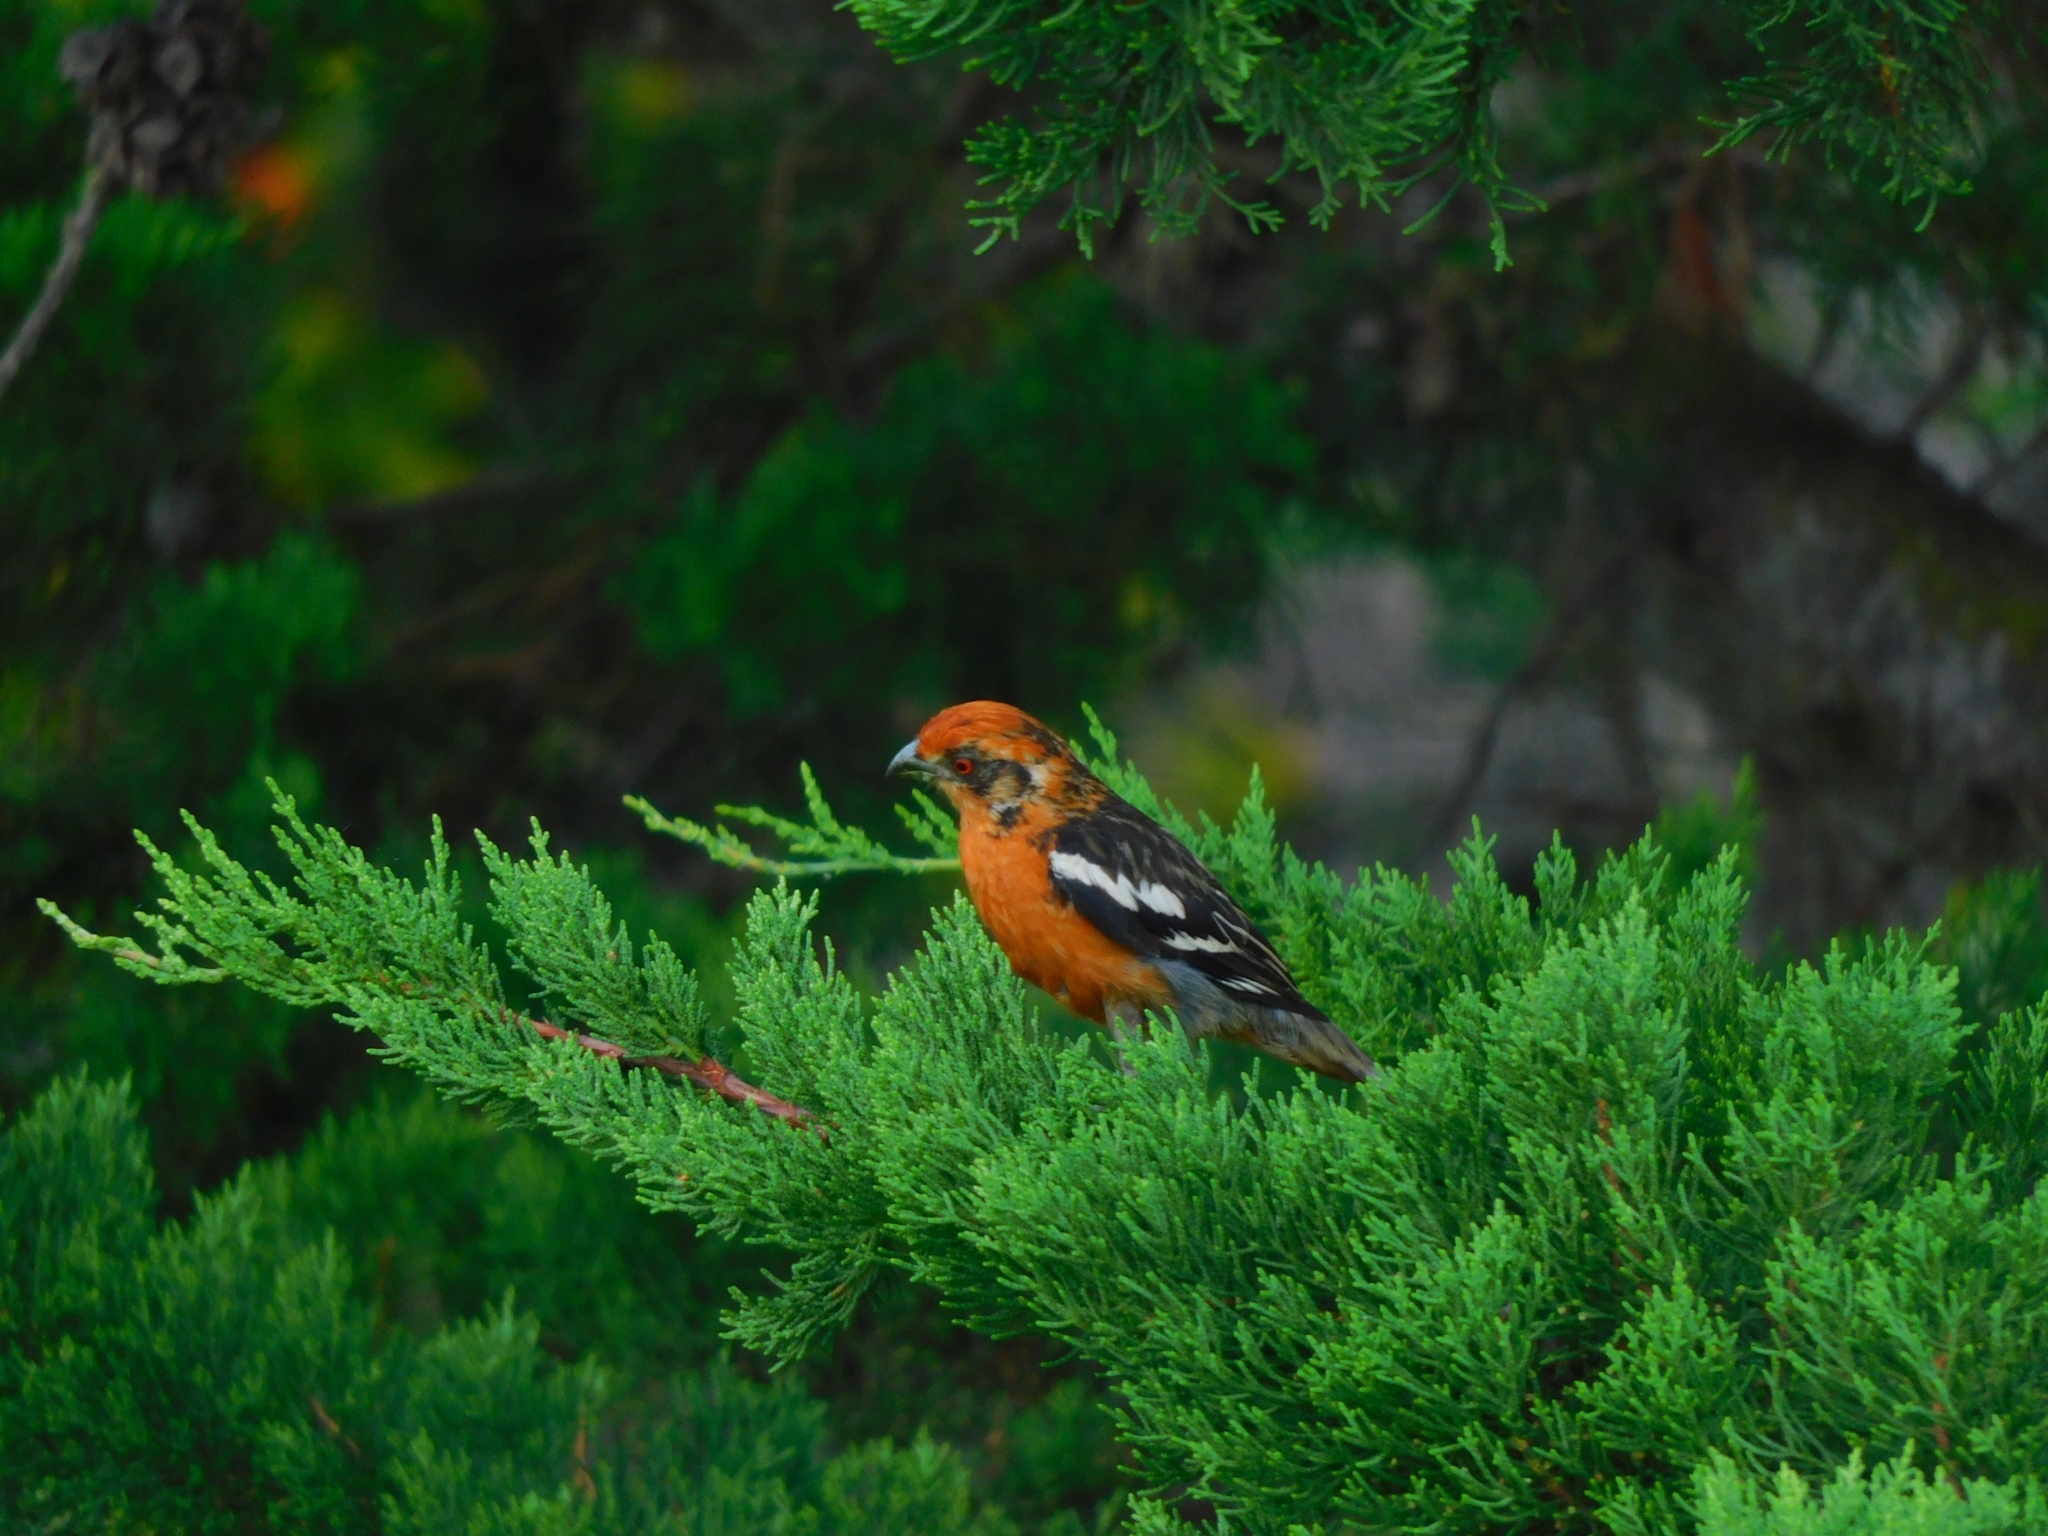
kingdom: Animalia
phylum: Chordata
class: Aves
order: Passeriformes
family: Cotingidae
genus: Phytotoma
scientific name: Phytotoma rara
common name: Rufous-tailed plantcutter
